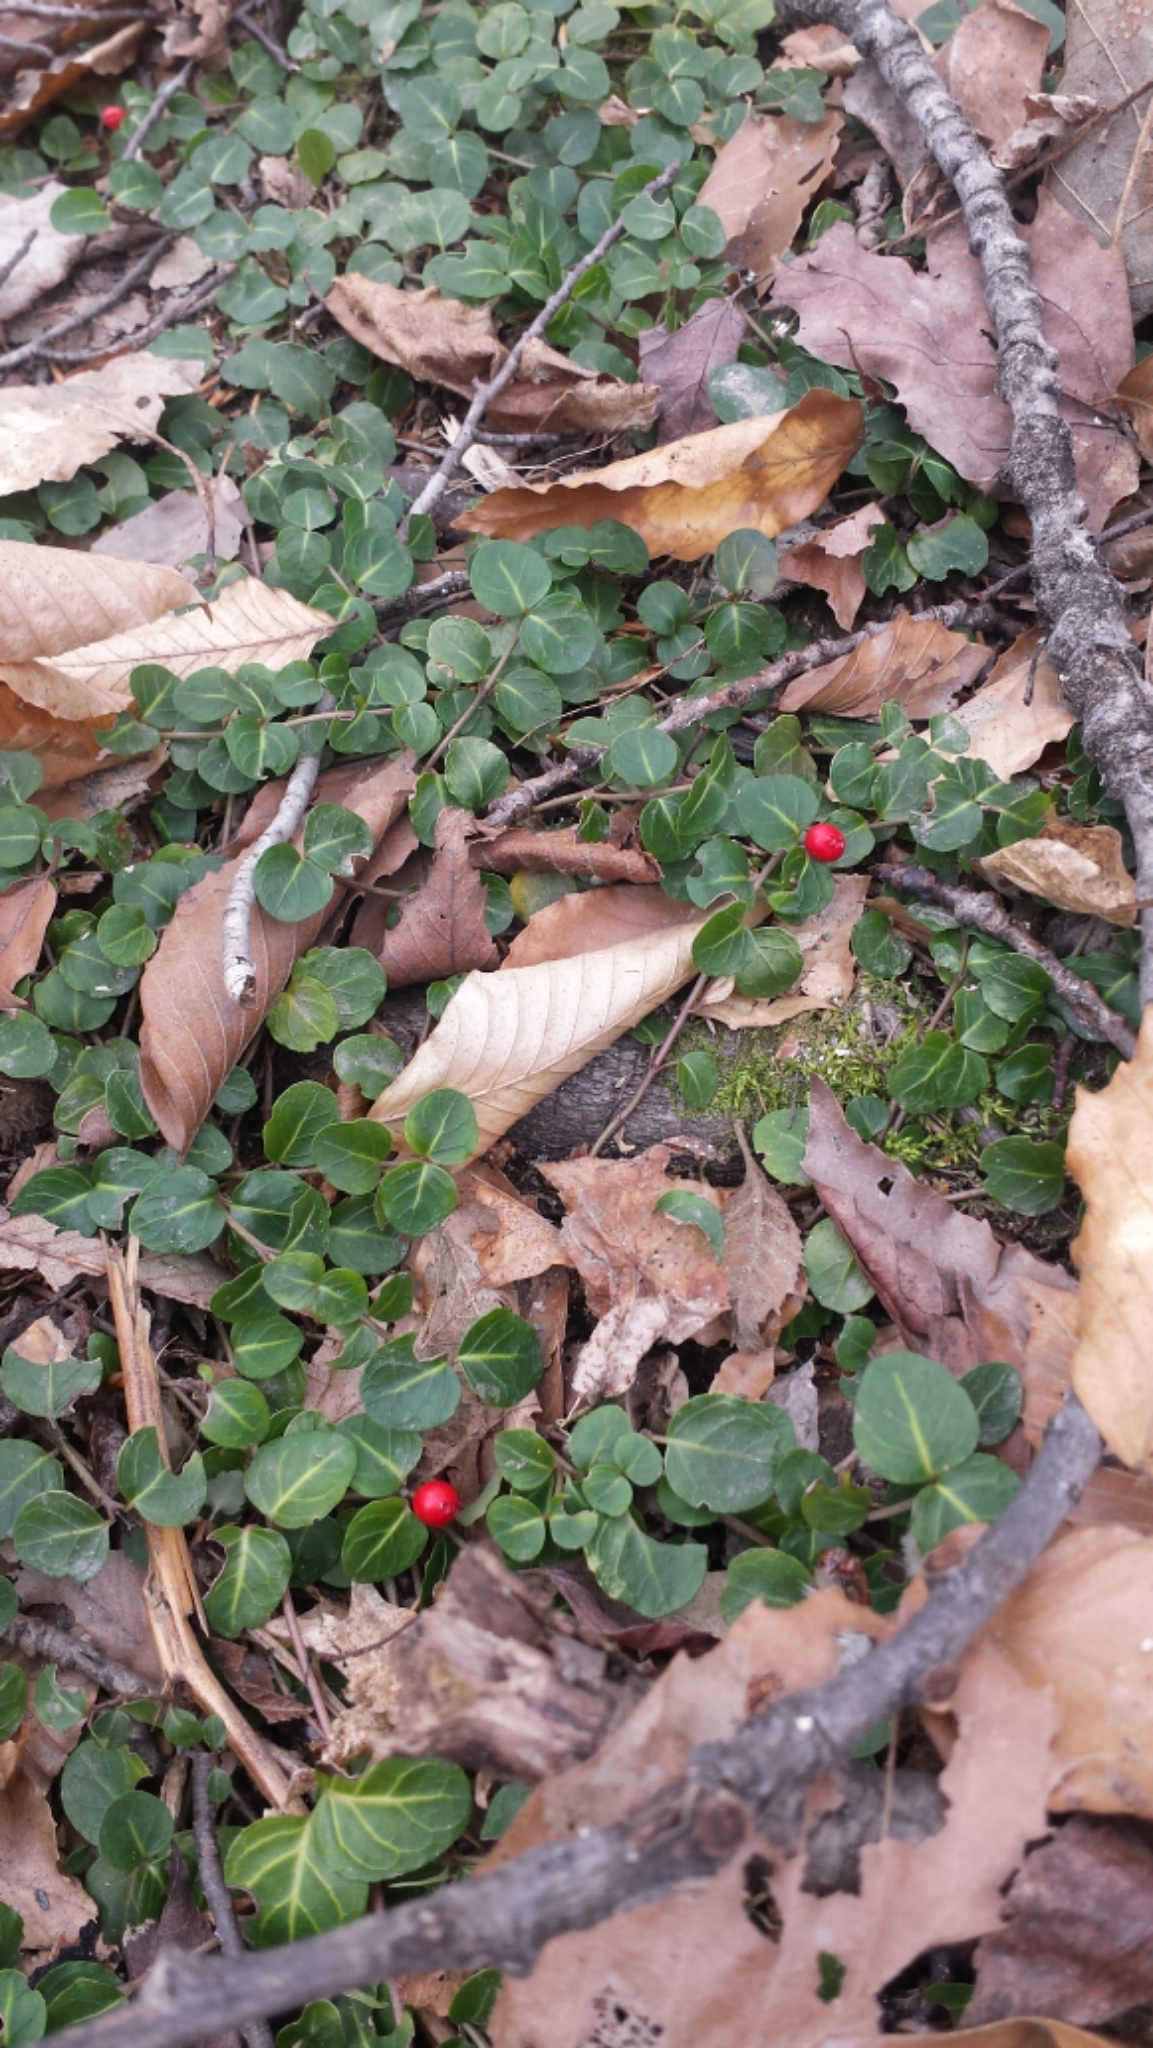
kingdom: Plantae
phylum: Tracheophyta
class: Magnoliopsida
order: Gentianales
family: Rubiaceae
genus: Mitchella
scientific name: Mitchella repens
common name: Partridge-berry
